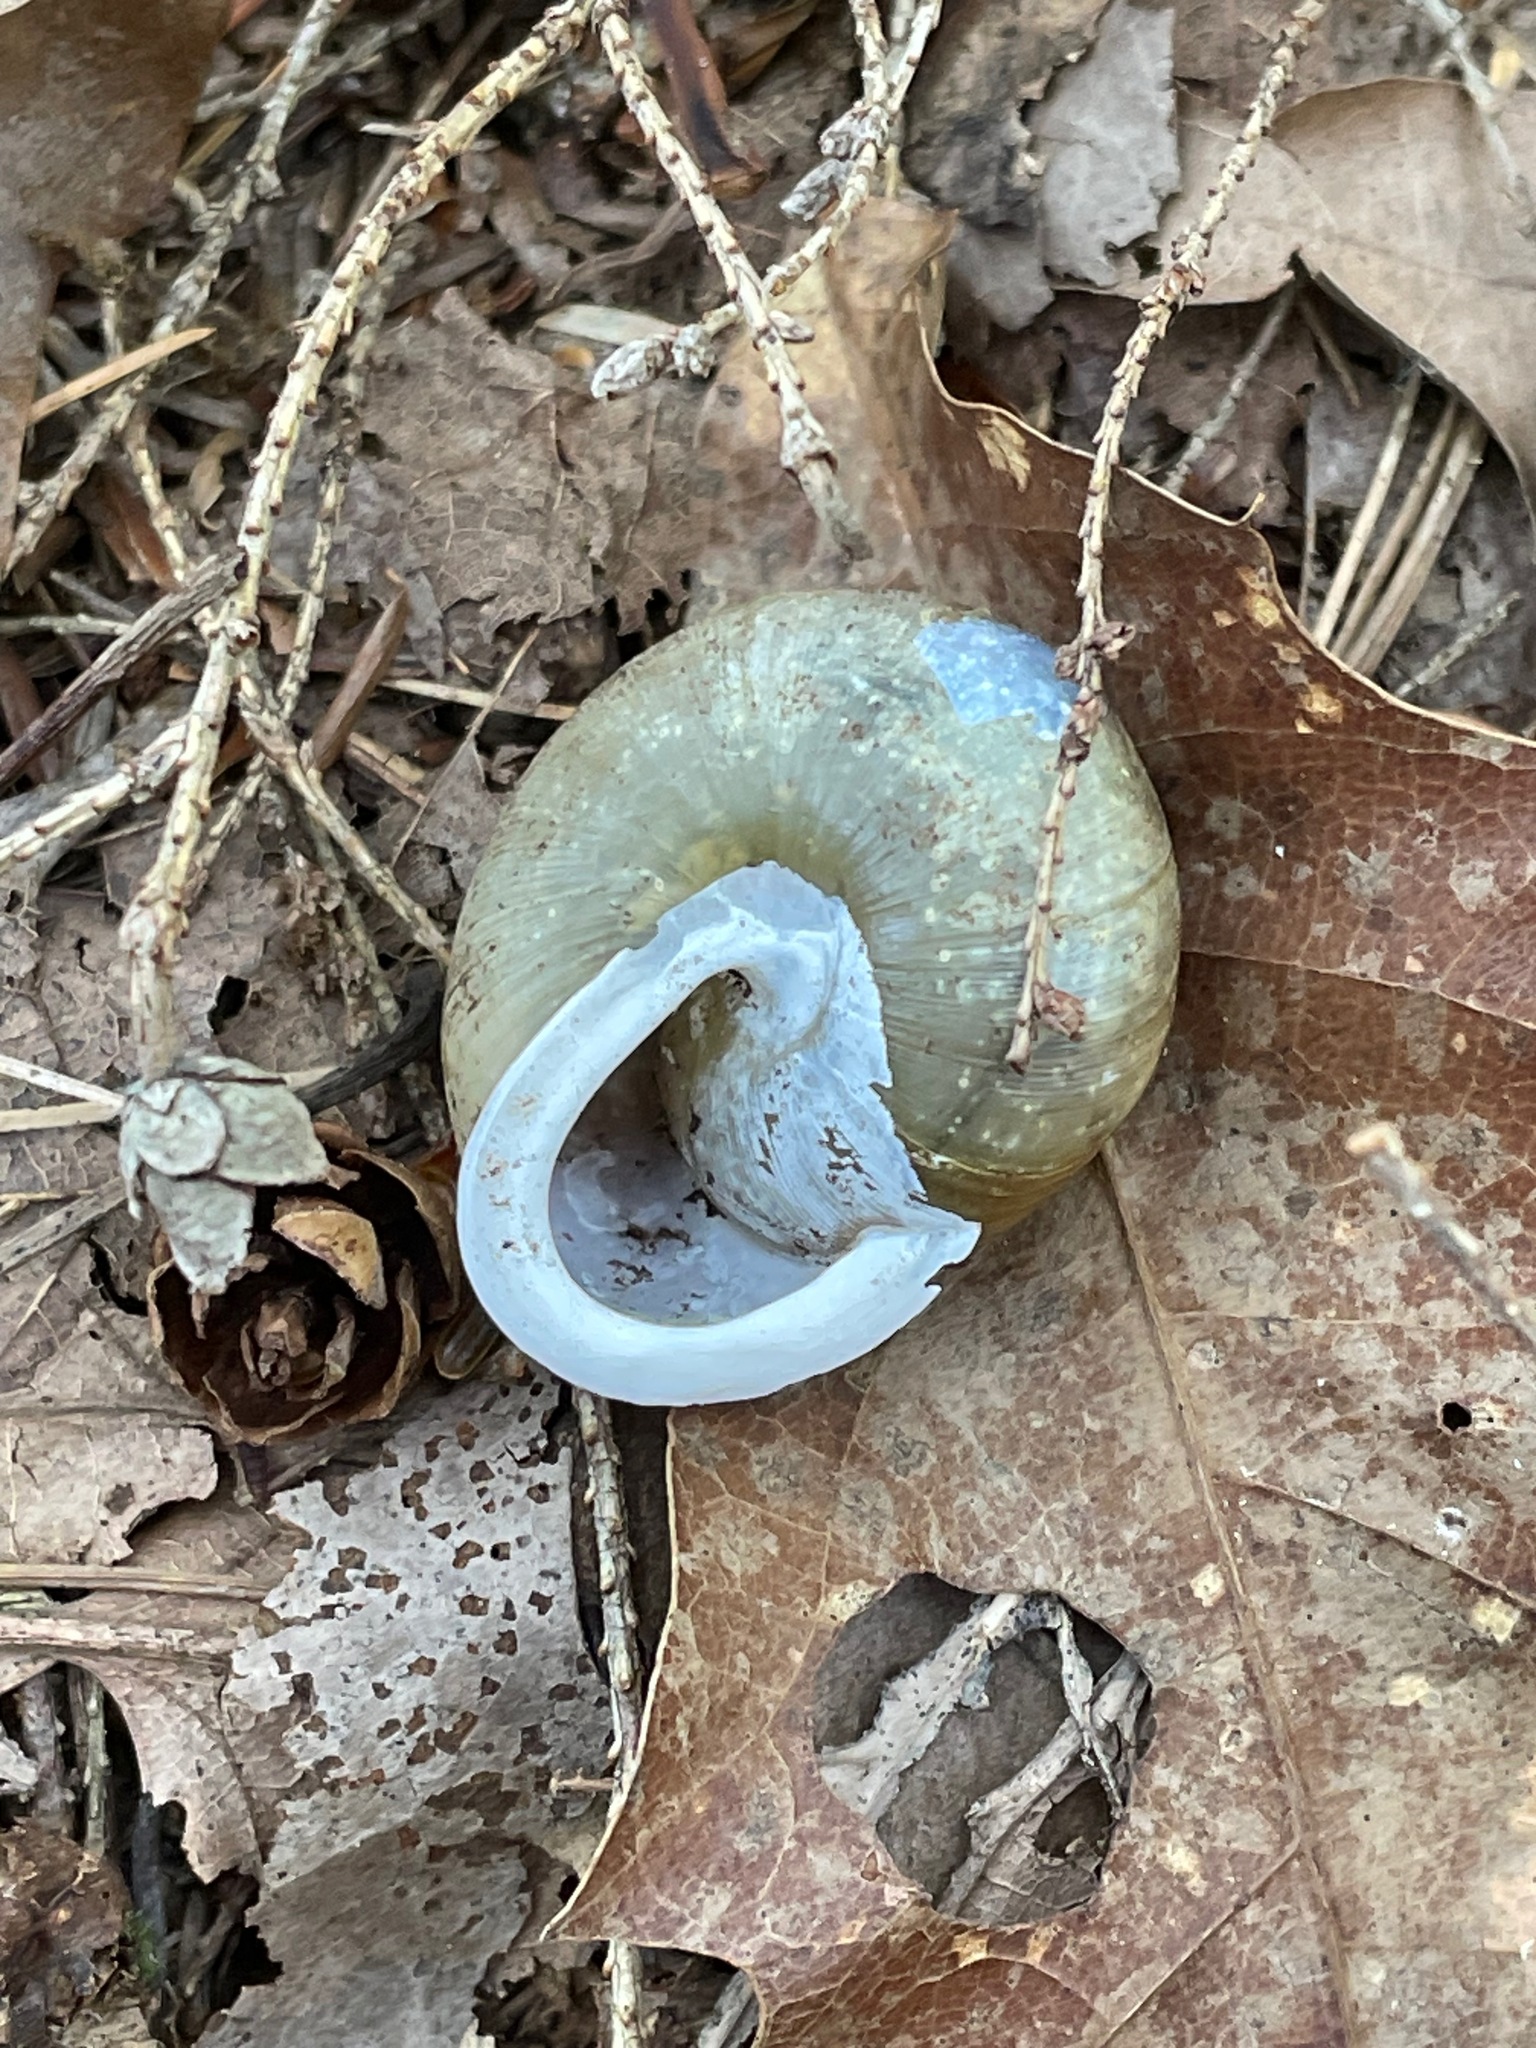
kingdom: Animalia
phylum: Mollusca
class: Gastropoda
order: Stylommatophora
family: Polygyridae
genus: Neohelix
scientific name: Neohelix albolabris
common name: Eastern whitelip
